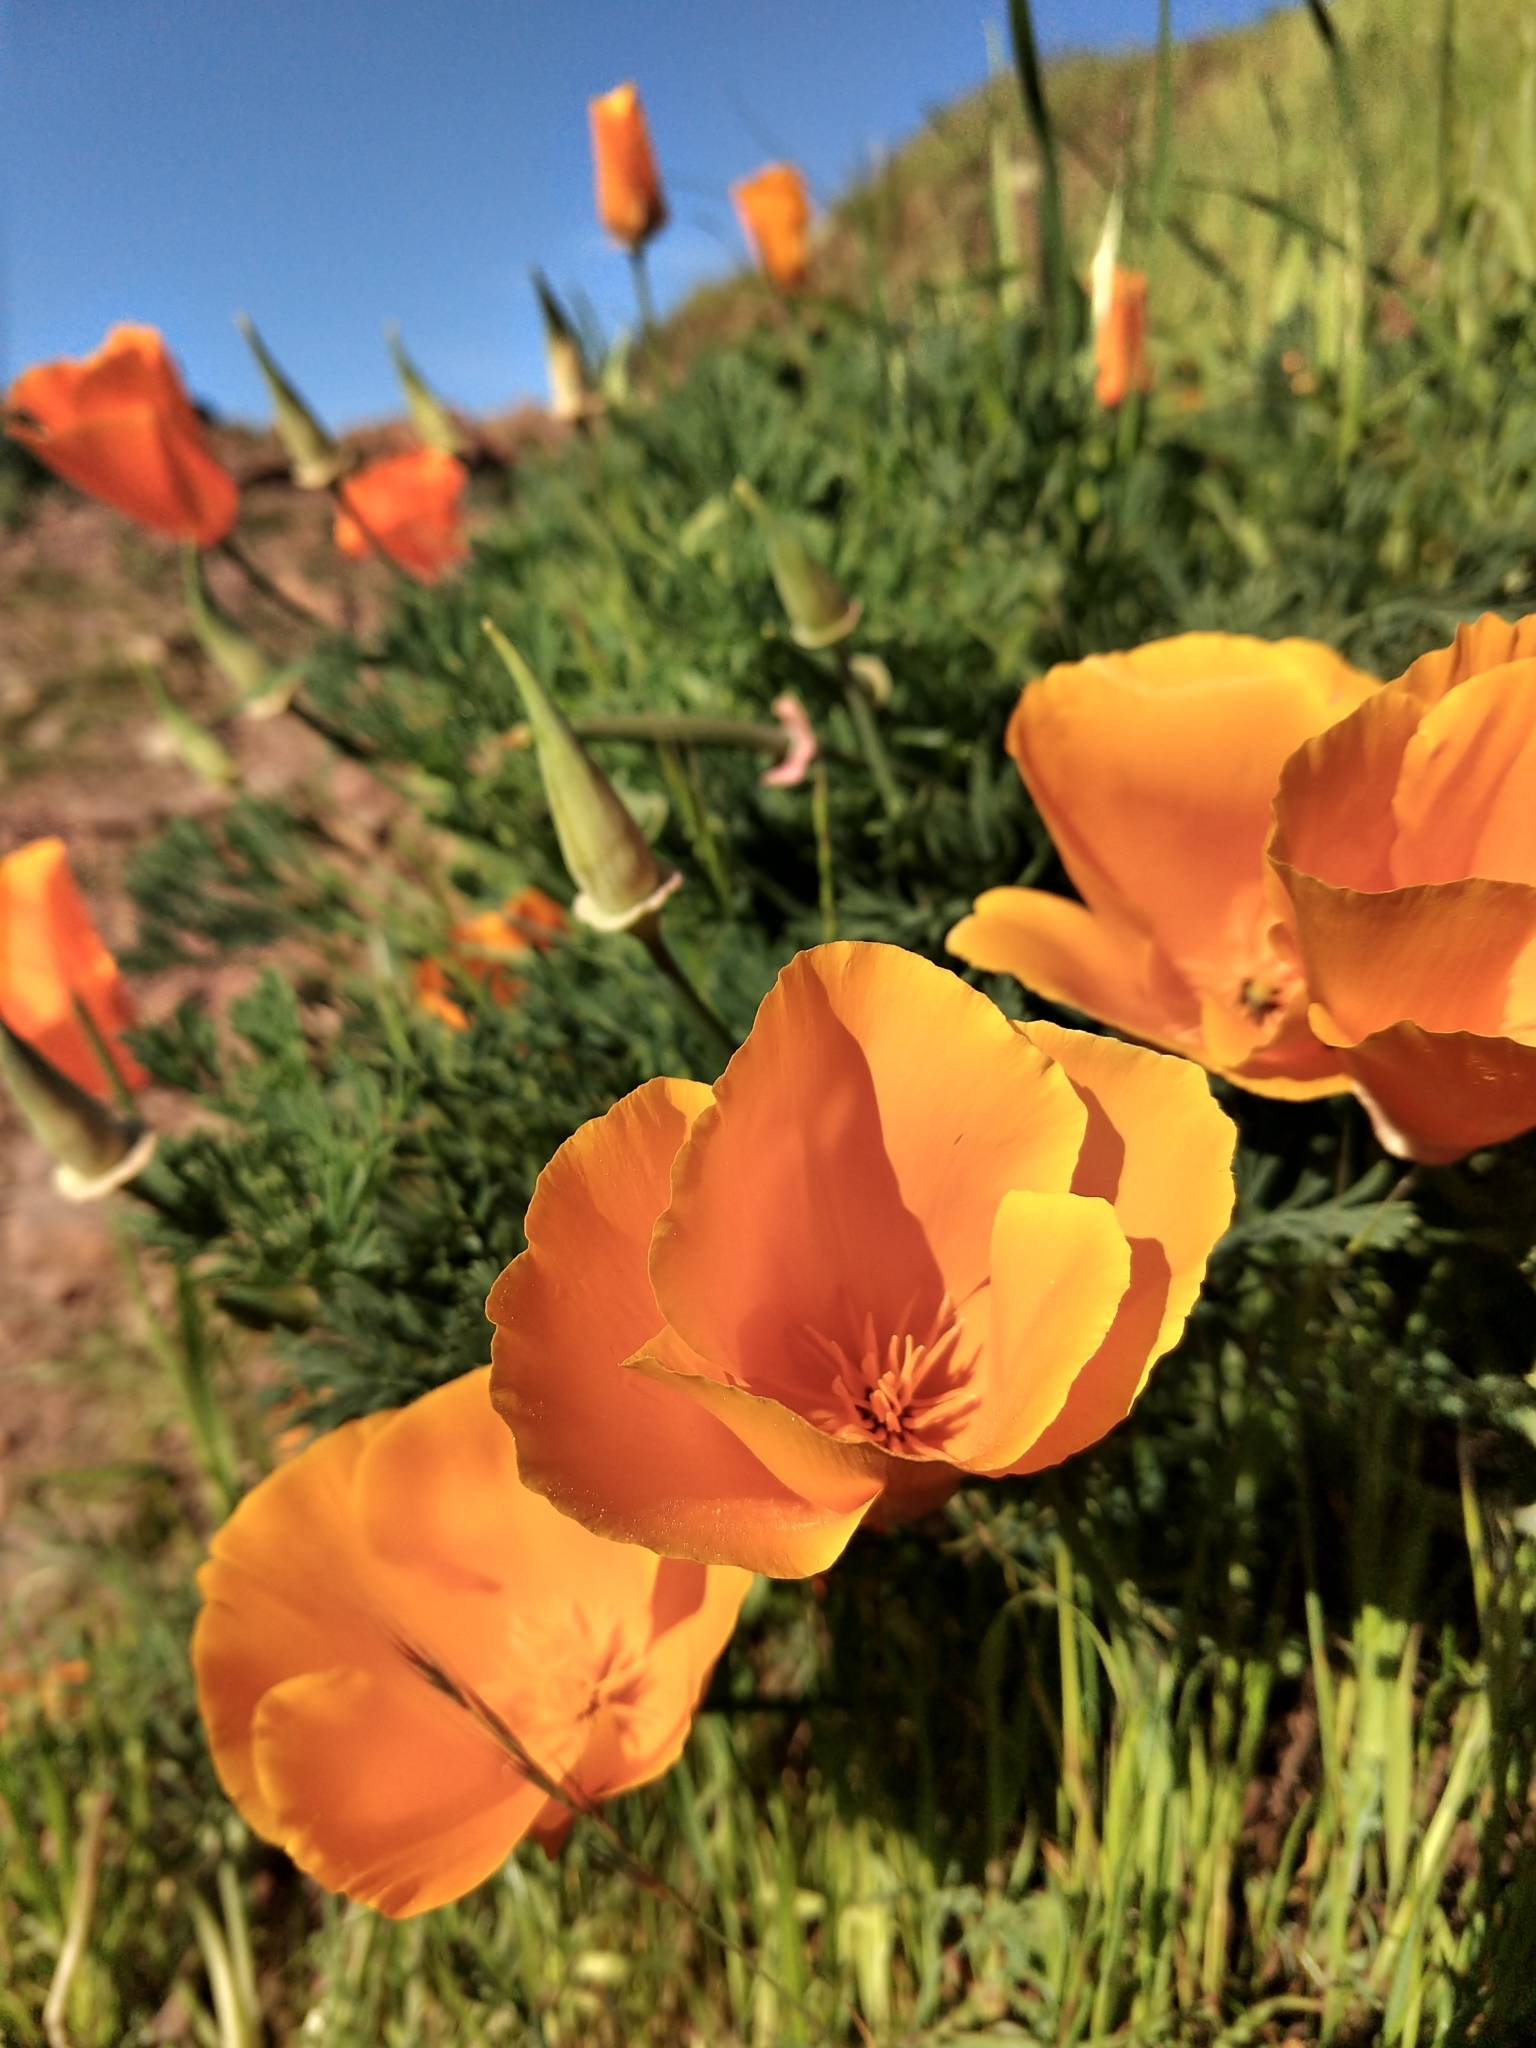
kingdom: Plantae
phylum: Tracheophyta
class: Magnoliopsida
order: Ranunculales
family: Papaveraceae
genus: Eschscholzia
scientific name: Eschscholzia californica
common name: California poppy
